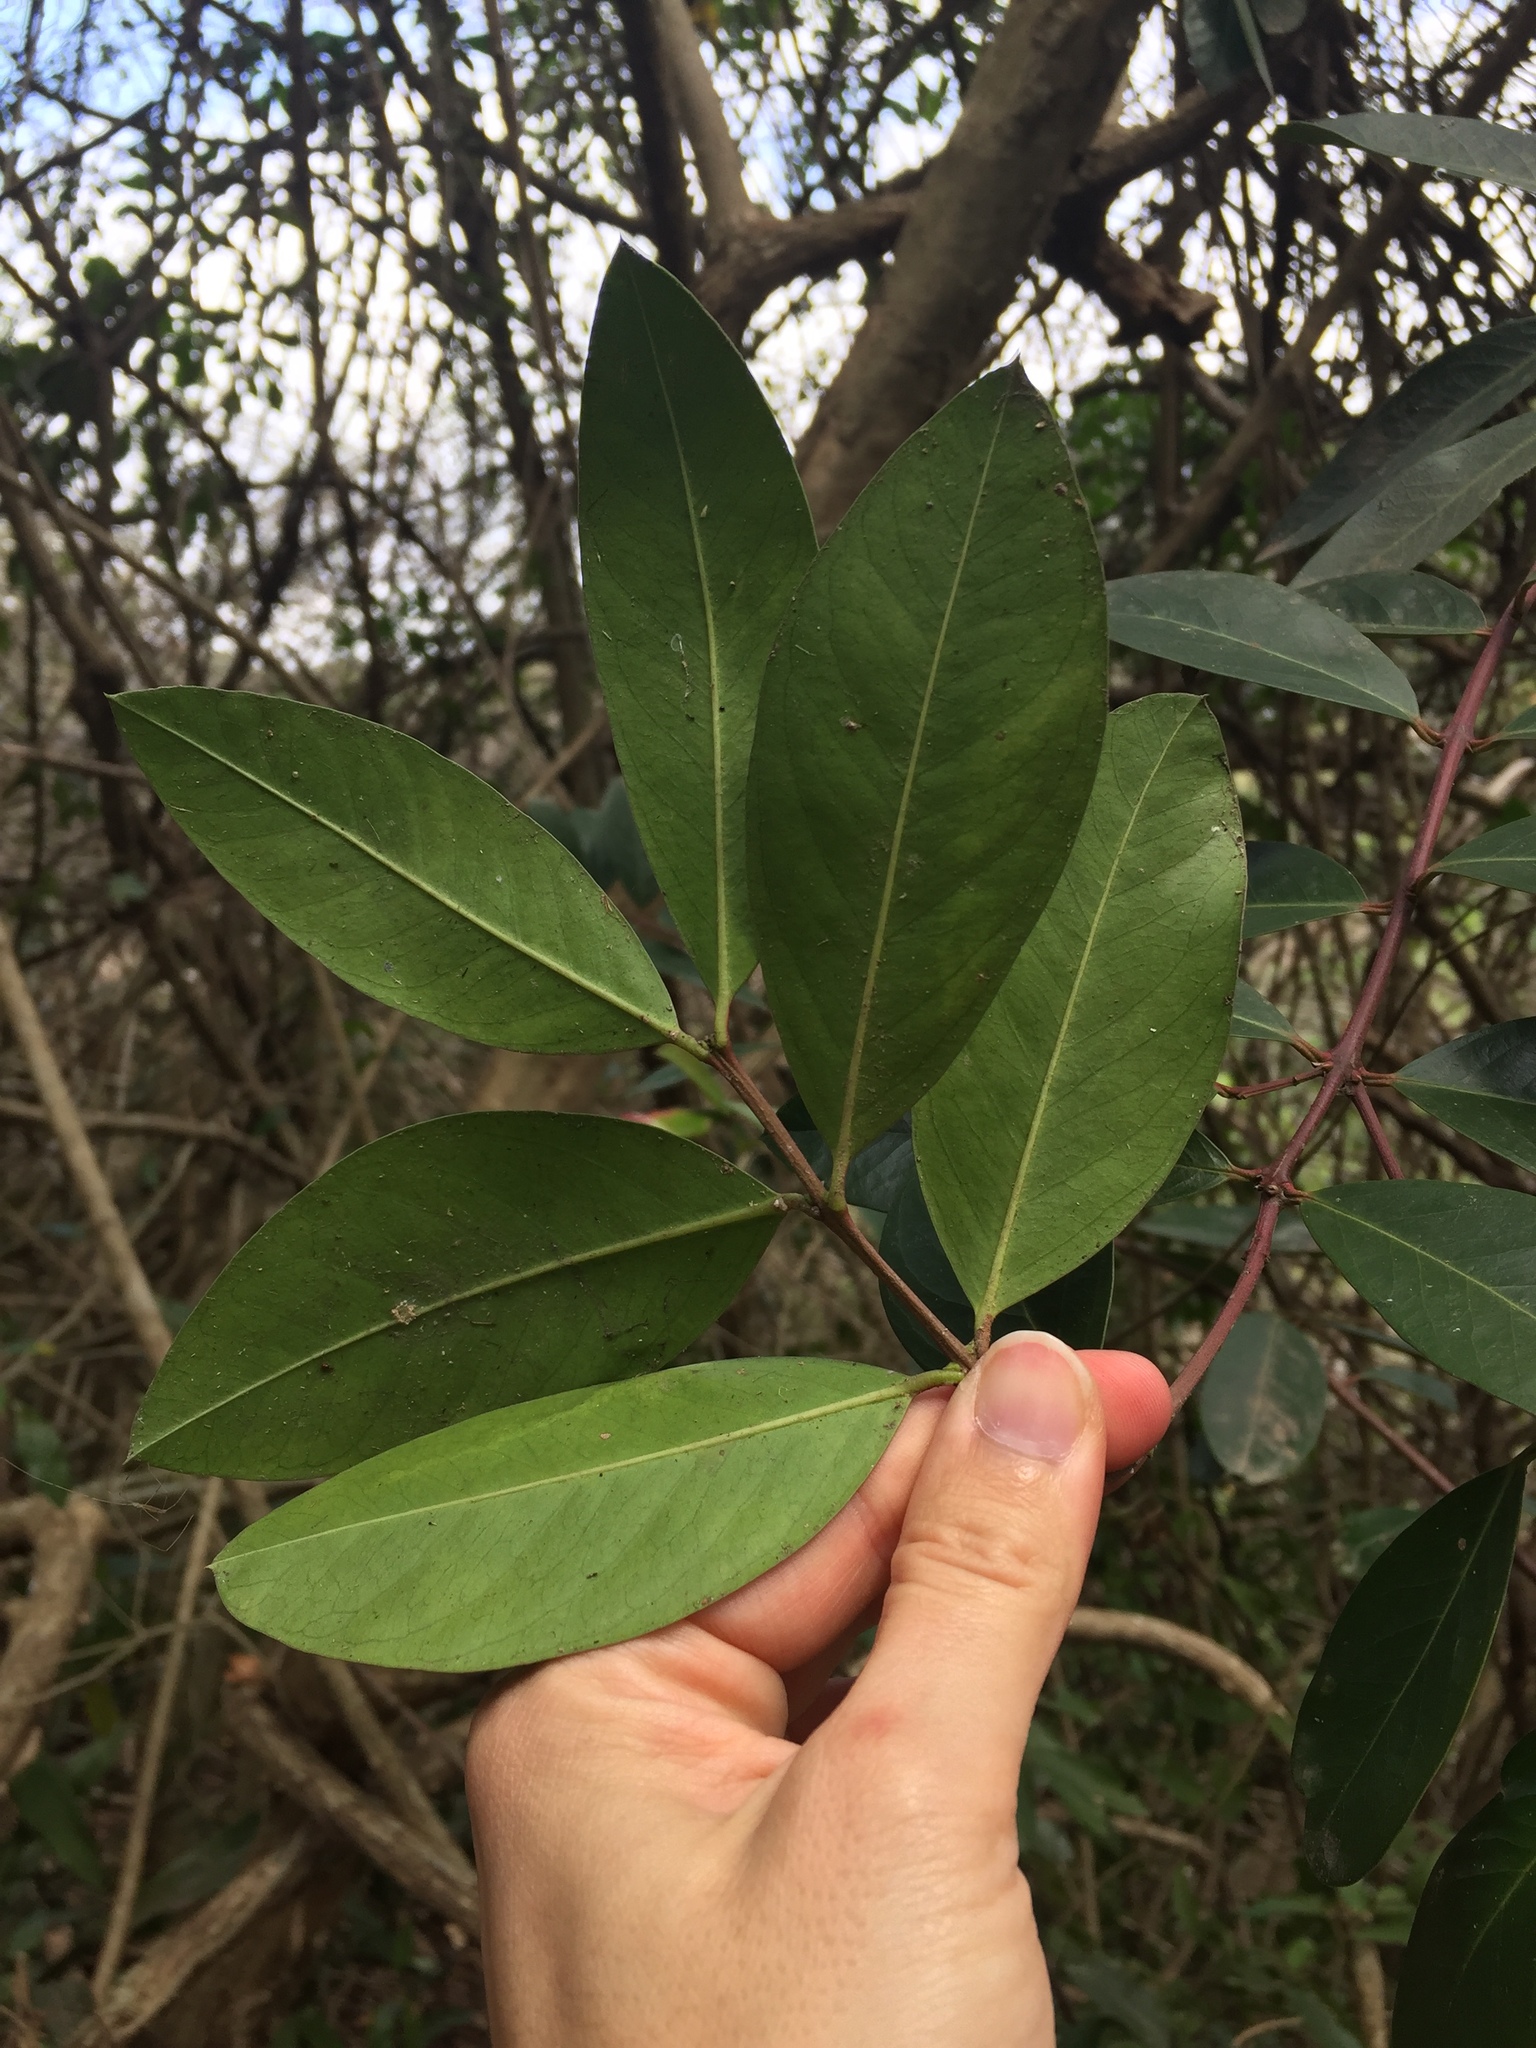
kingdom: Plantae
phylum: Tracheophyta
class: Magnoliopsida
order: Gentianales
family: Apocynaceae
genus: Acokanthera
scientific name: Acokanthera oppositifolia
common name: Bushman's-poison
